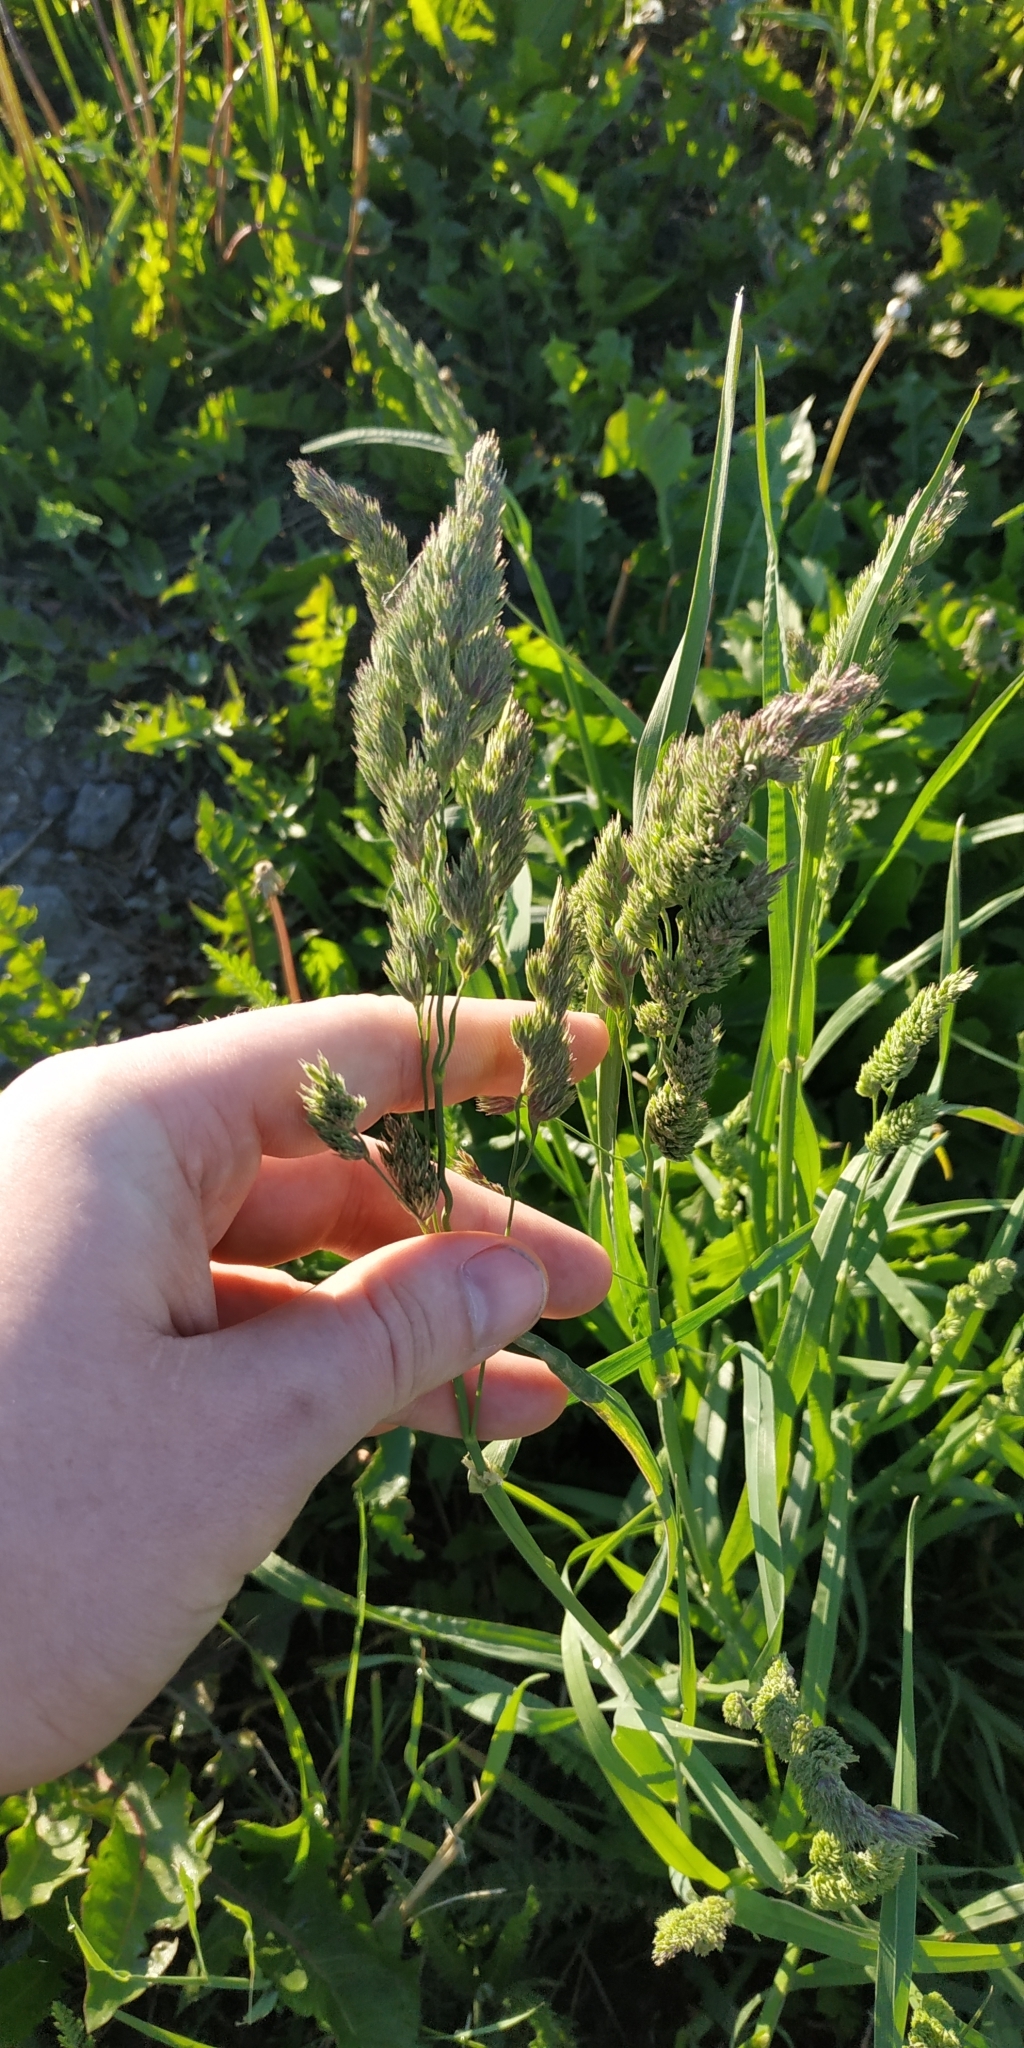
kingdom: Plantae
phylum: Tracheophyta
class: Liliopsida
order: Poales
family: Poaceae
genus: Dactylis
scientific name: Dactylis glomerata
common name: Orchardgrass
